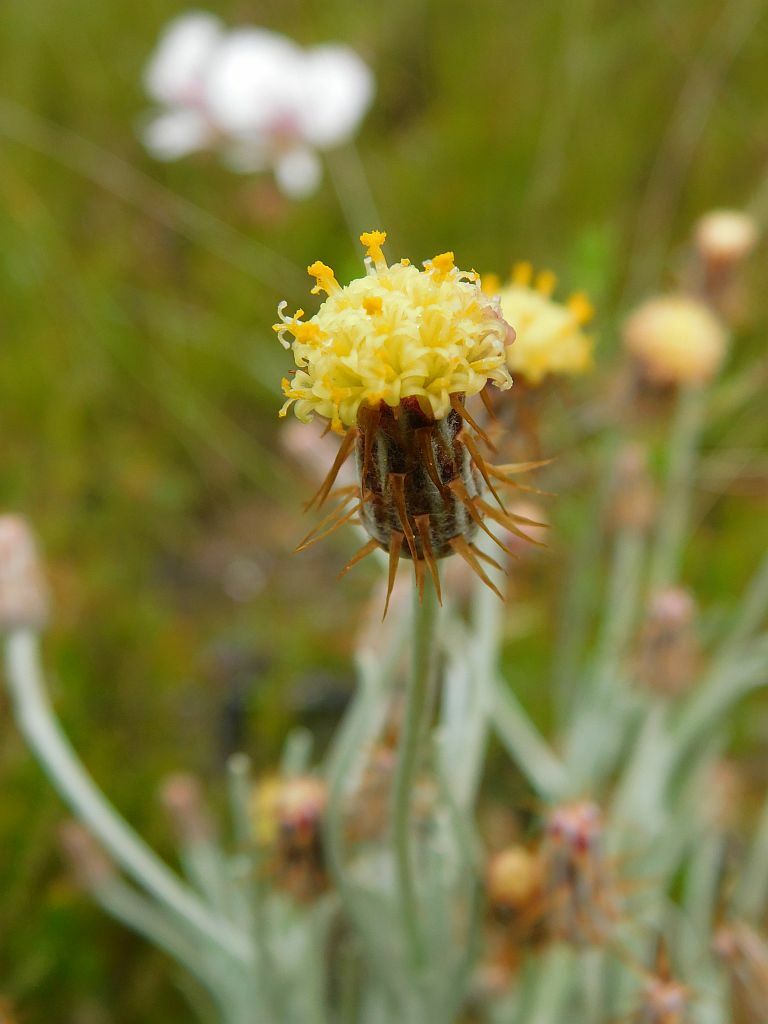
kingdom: Plantae
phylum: Tracheophyta
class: Magnoliopsida
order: Asterales
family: Asteraceae
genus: Syncarpha
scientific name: Syncarpha gnaphaloides
